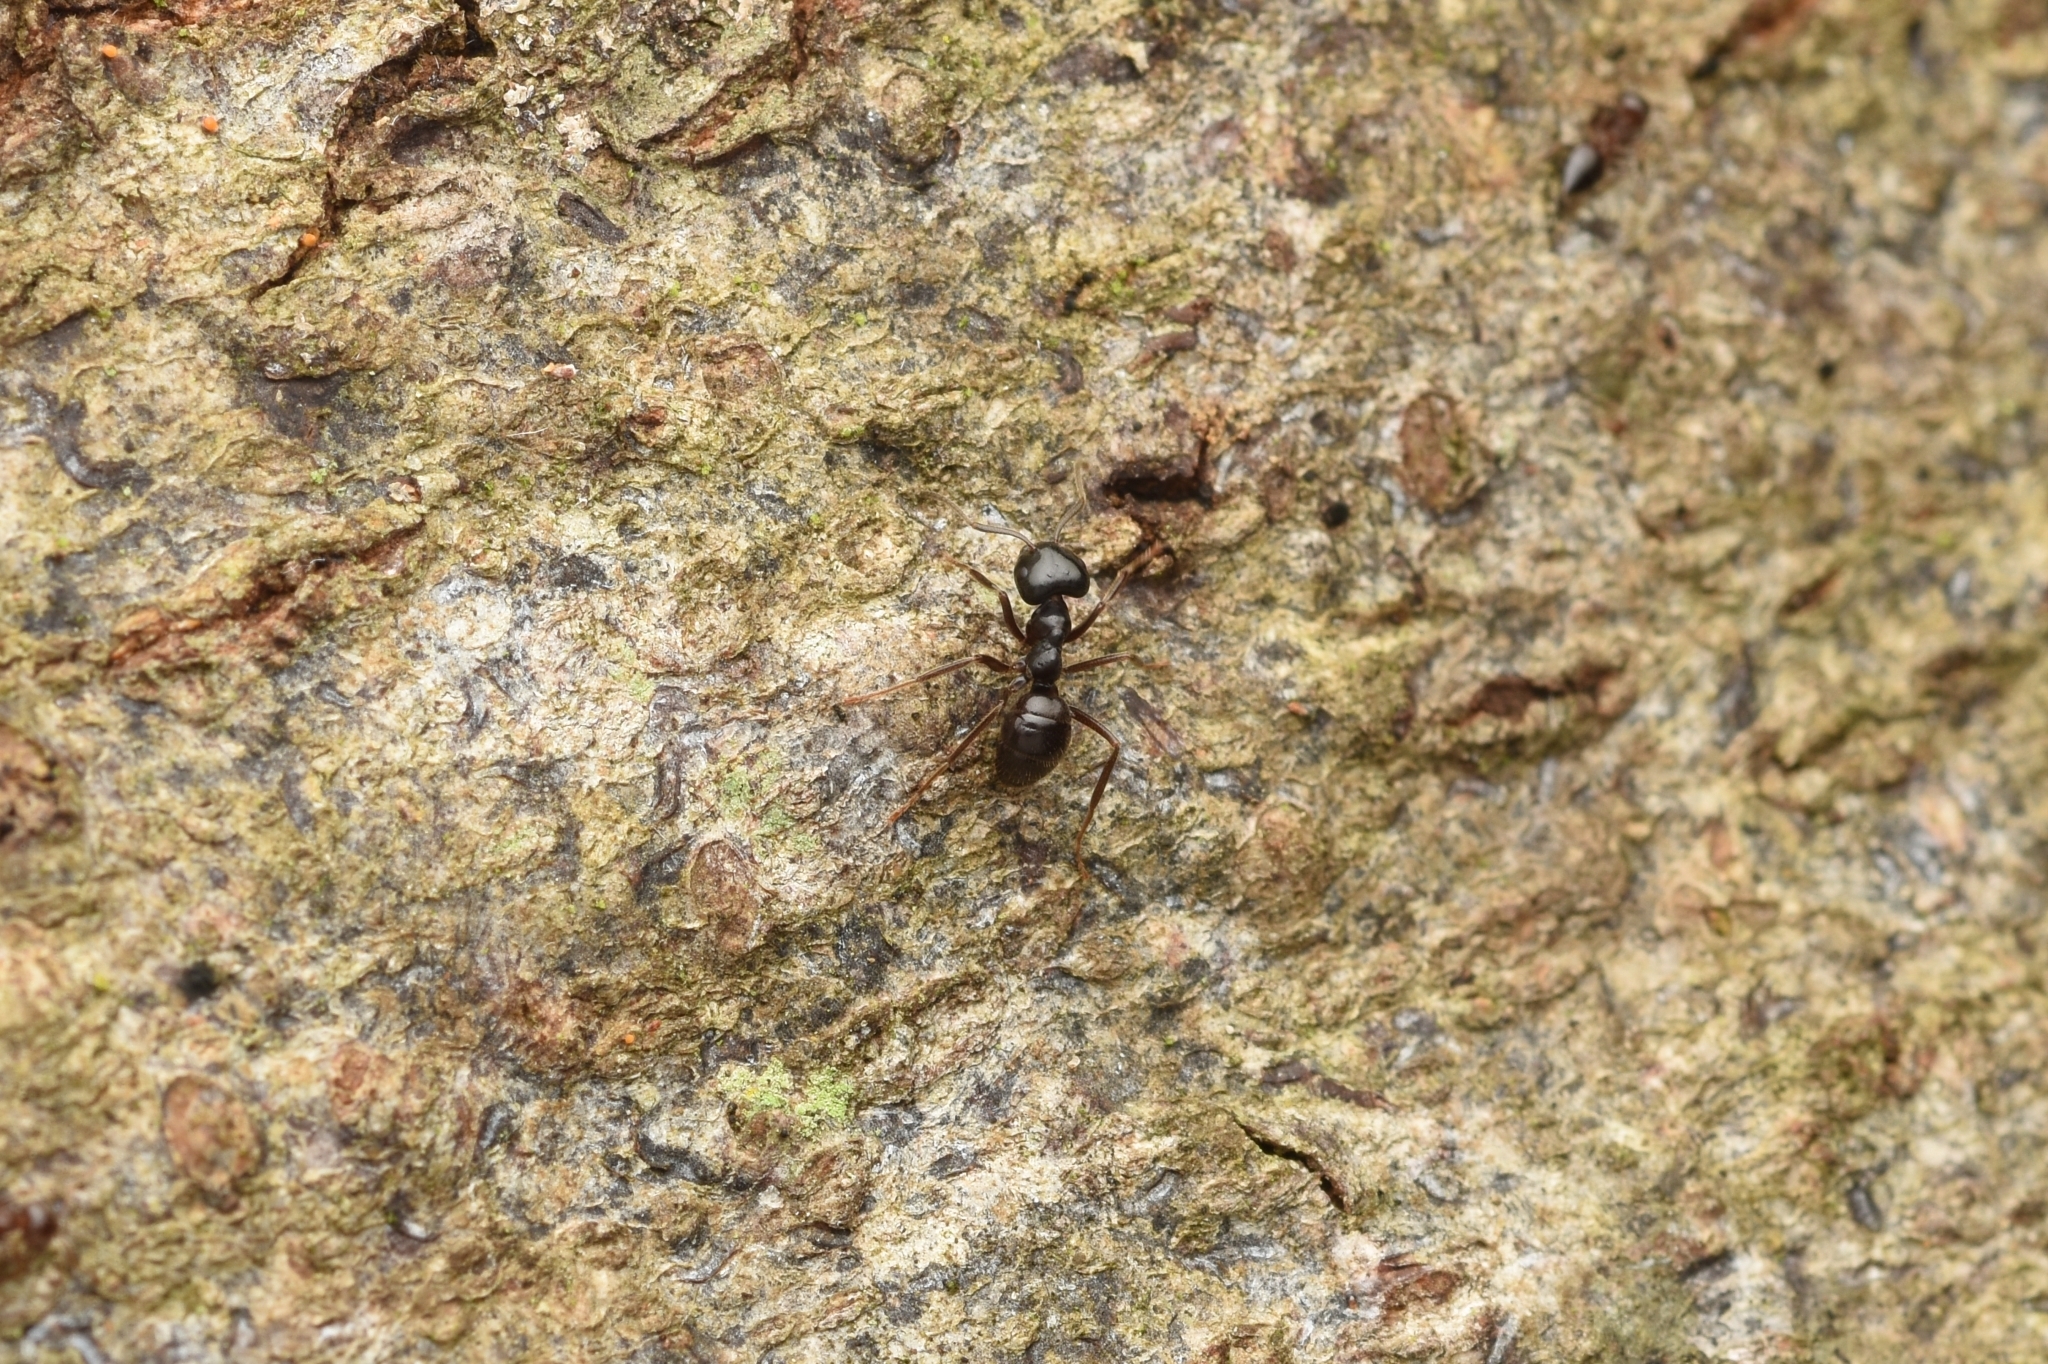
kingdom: Animalia
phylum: Arthropoda
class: Insecta
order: Hymenoptera
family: Formicidae
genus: Lasius
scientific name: Lasius spathepus
